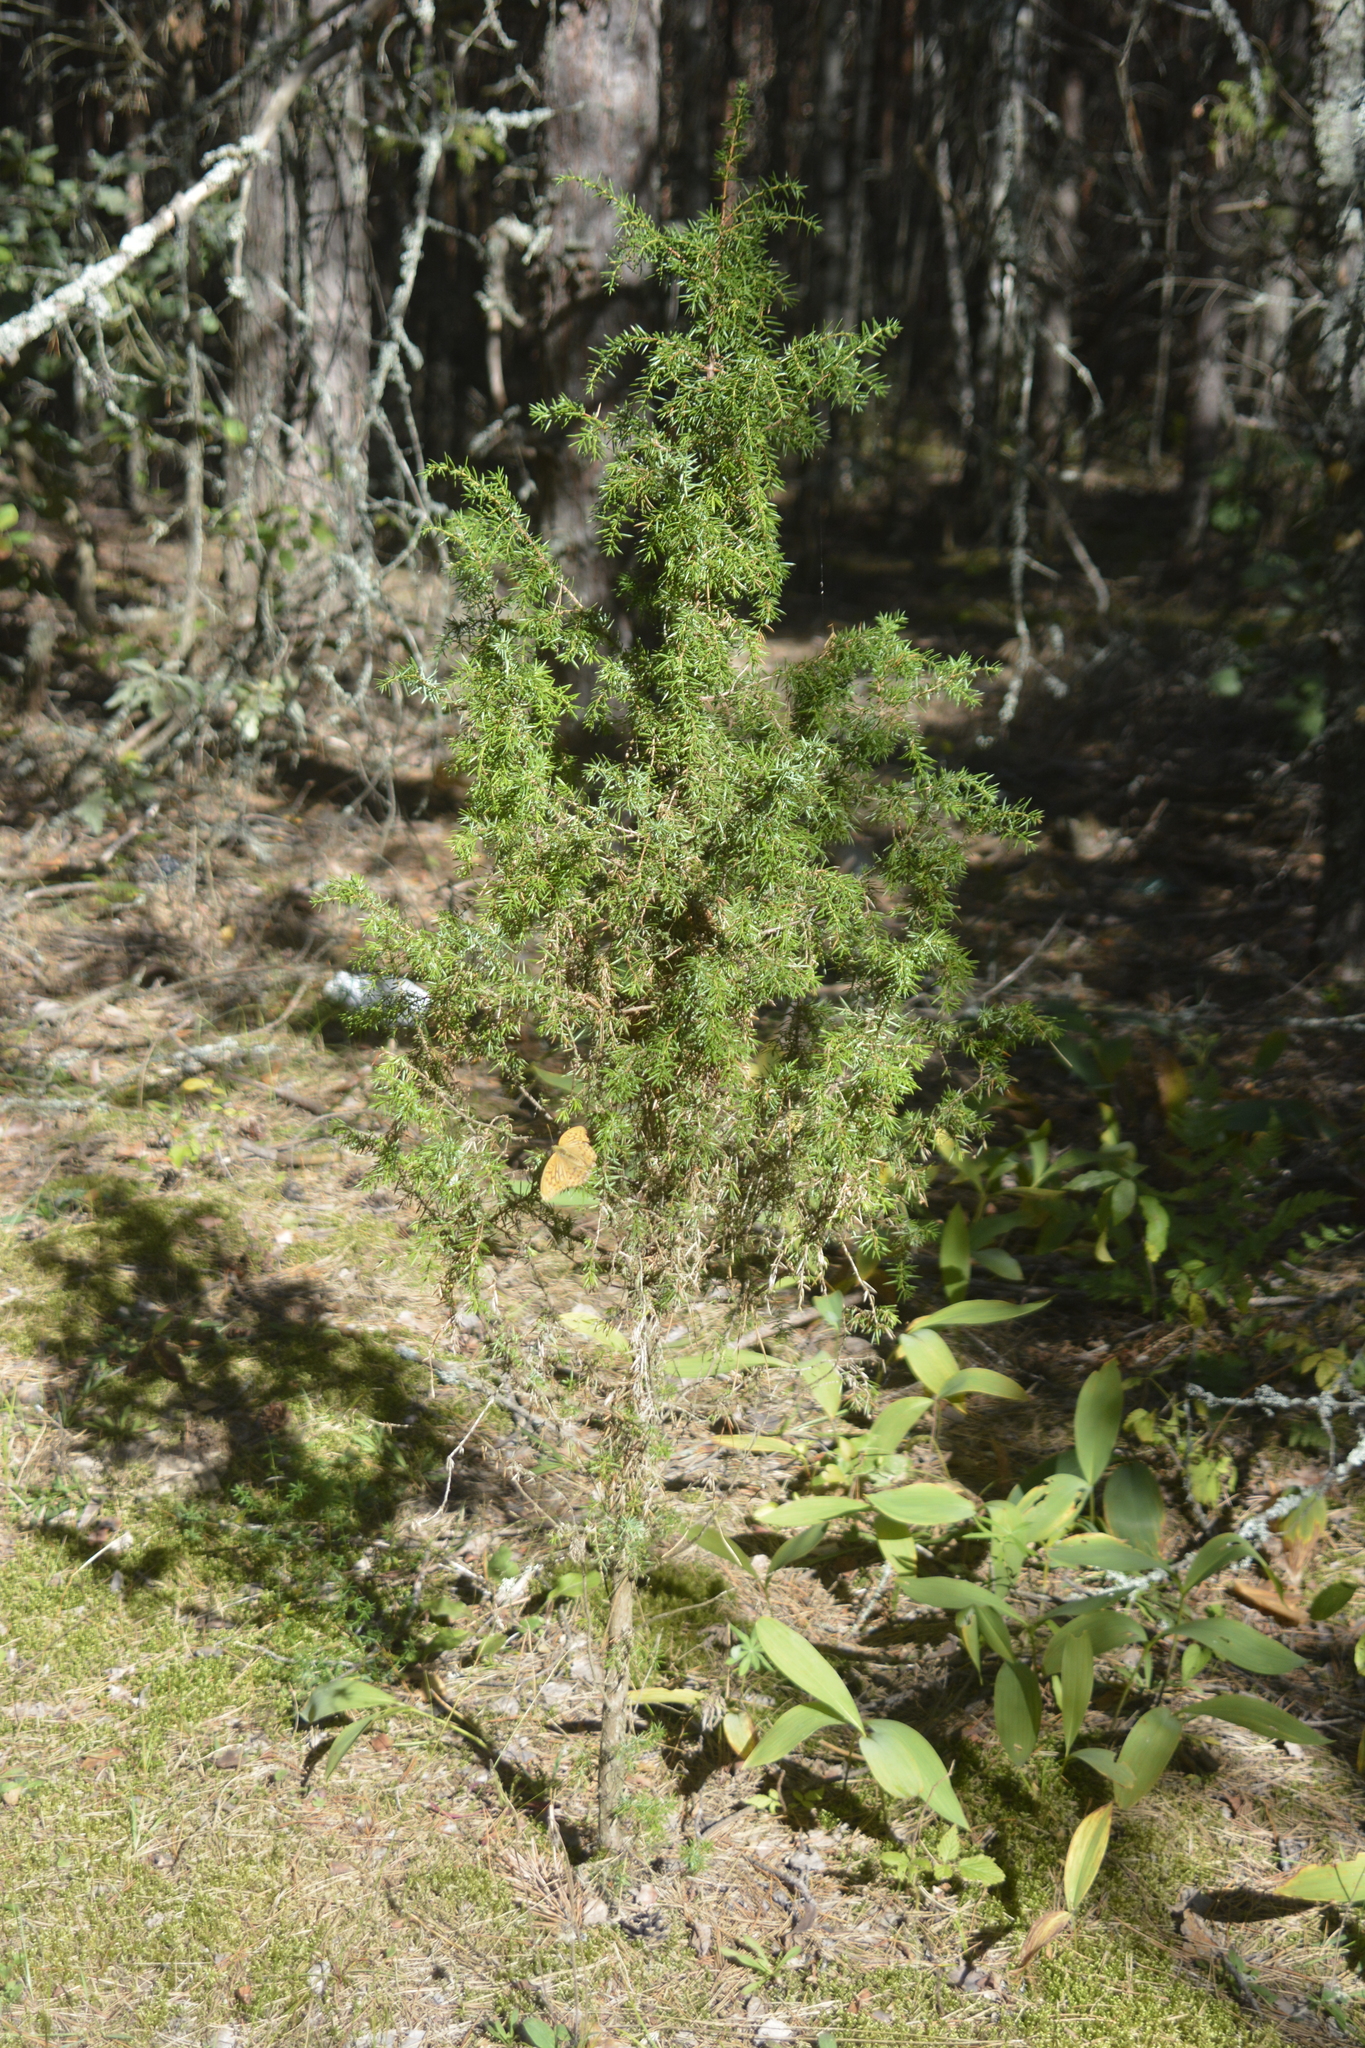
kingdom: Plantae
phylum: Tracheophyta
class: Pinopsida
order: Pinales
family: Cupressaceae
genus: Juniperus
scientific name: Juniperus communis
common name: Common juniper
